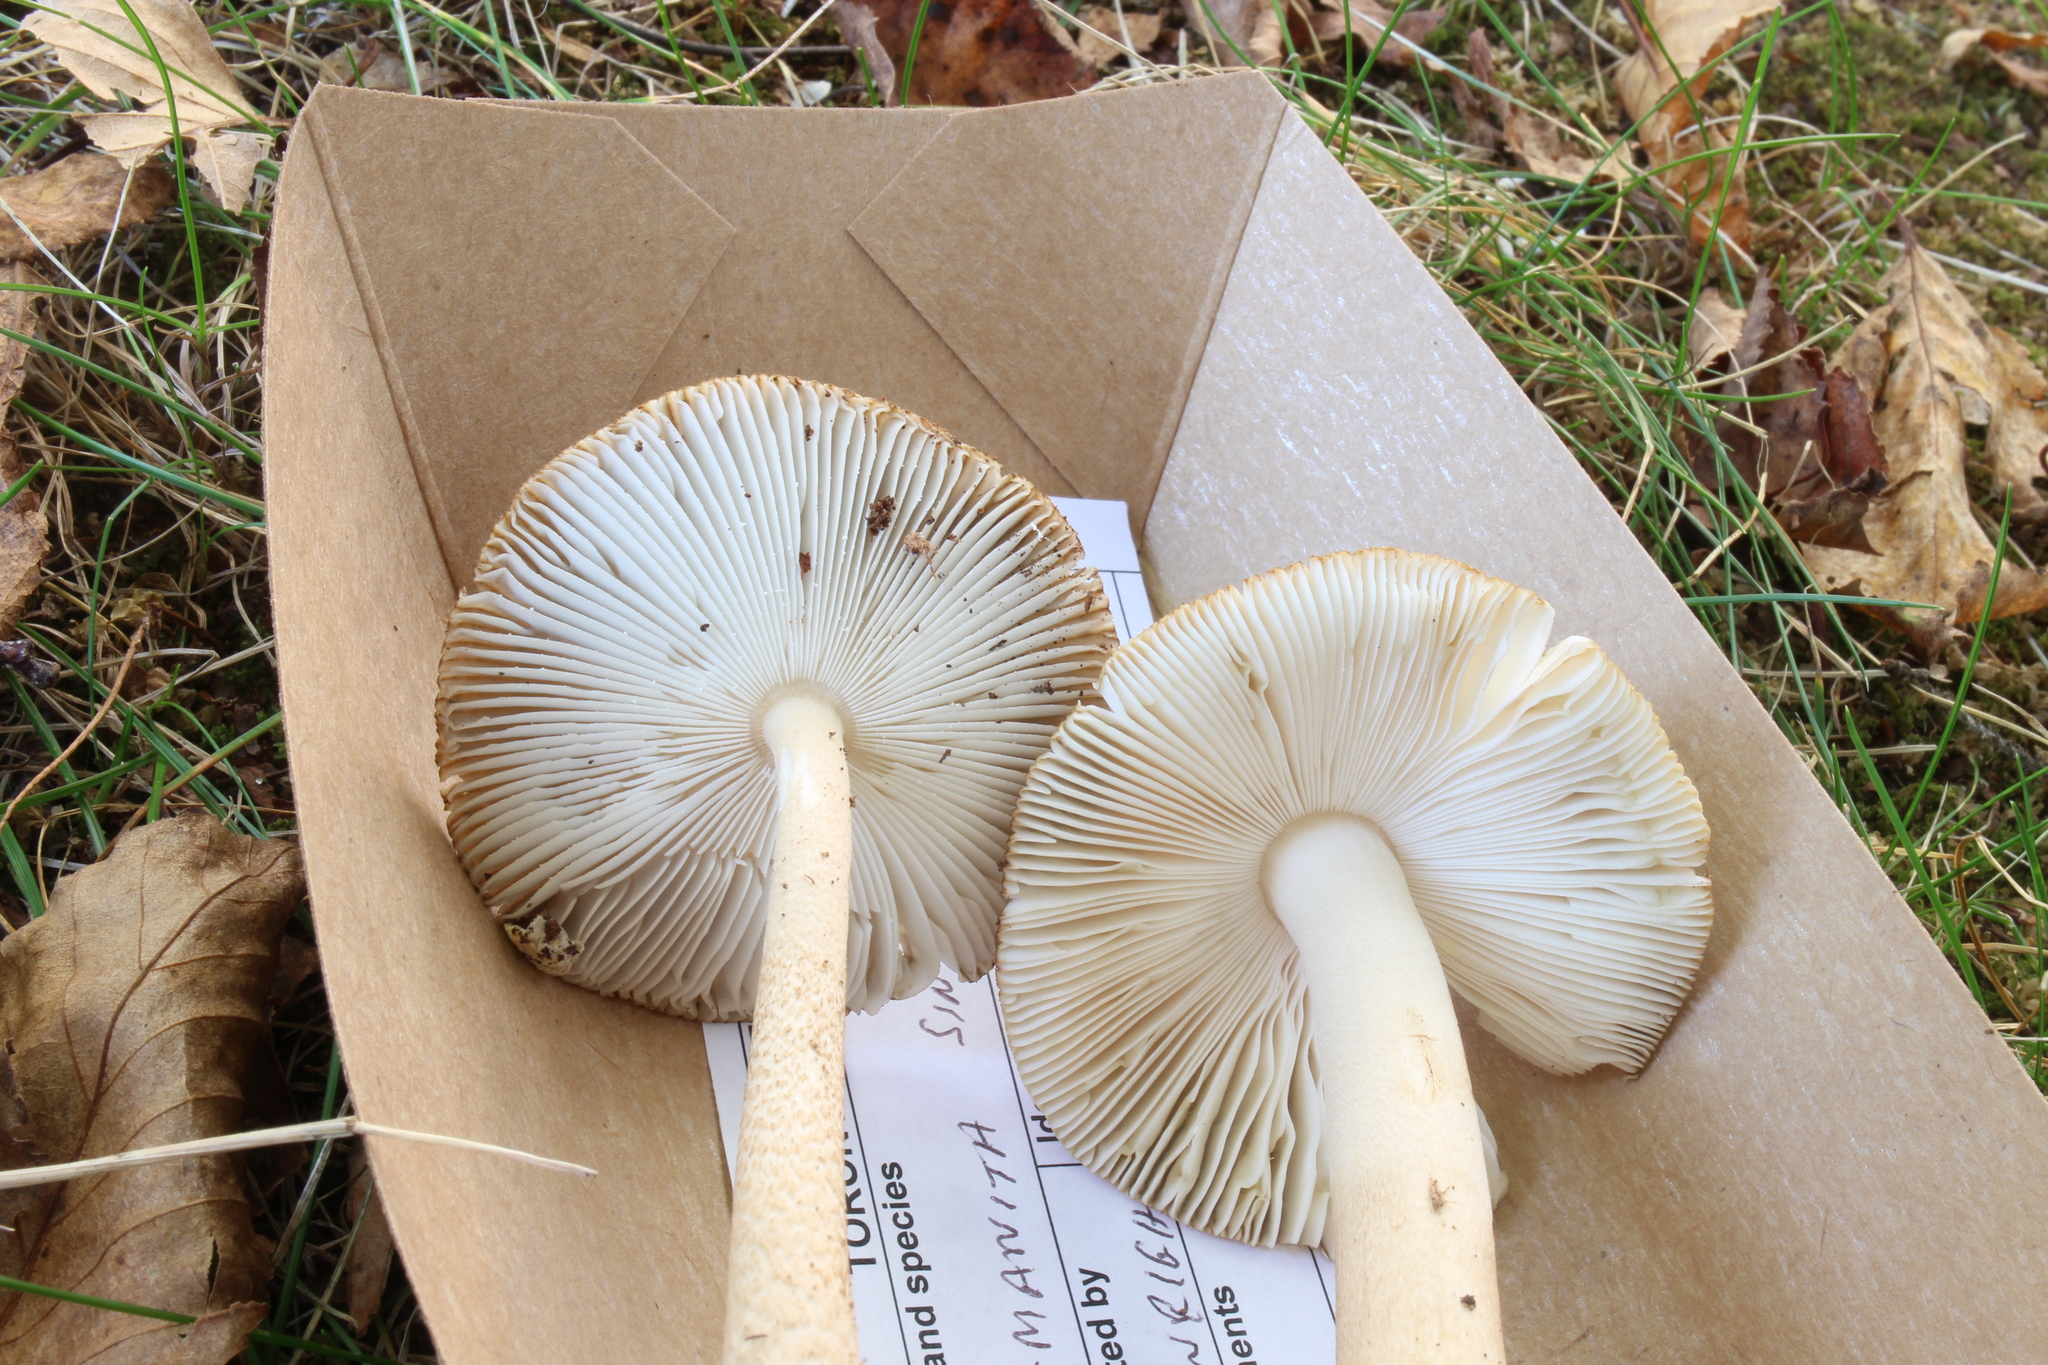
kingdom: Fungi
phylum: Basidiomycota
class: Agaricomycetes
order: Agaricales
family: Amanitaceae
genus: Amanita
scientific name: Amanita sinicoflava
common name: Mandarin yellow ringless amanita
